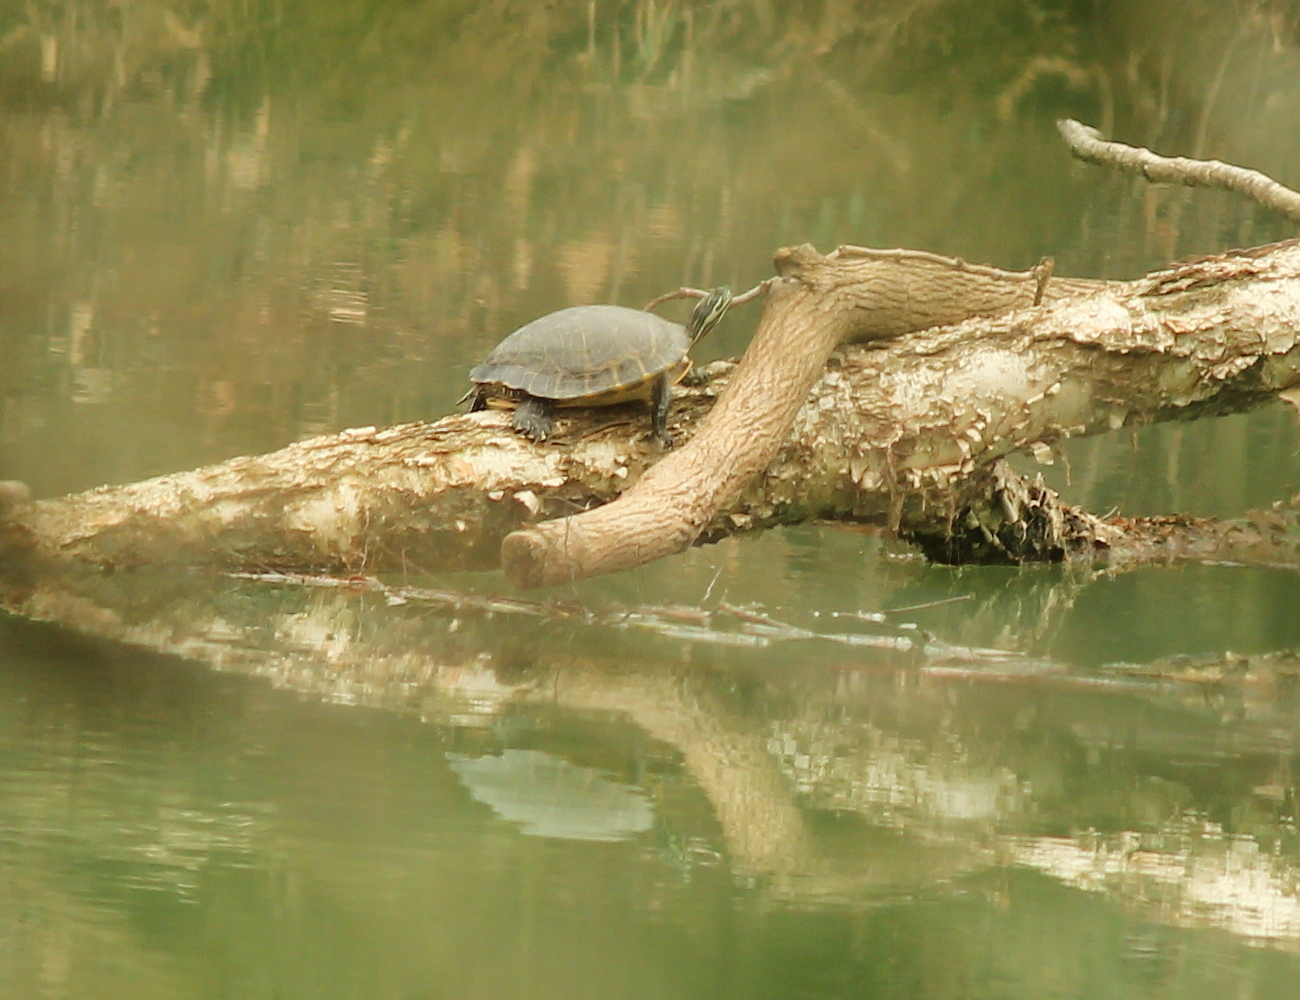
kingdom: Animalia
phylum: Chordata
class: Testudines
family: Emydidae
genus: Pseudemys
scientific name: Pseudemys concinna
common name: Eastern river cooter
